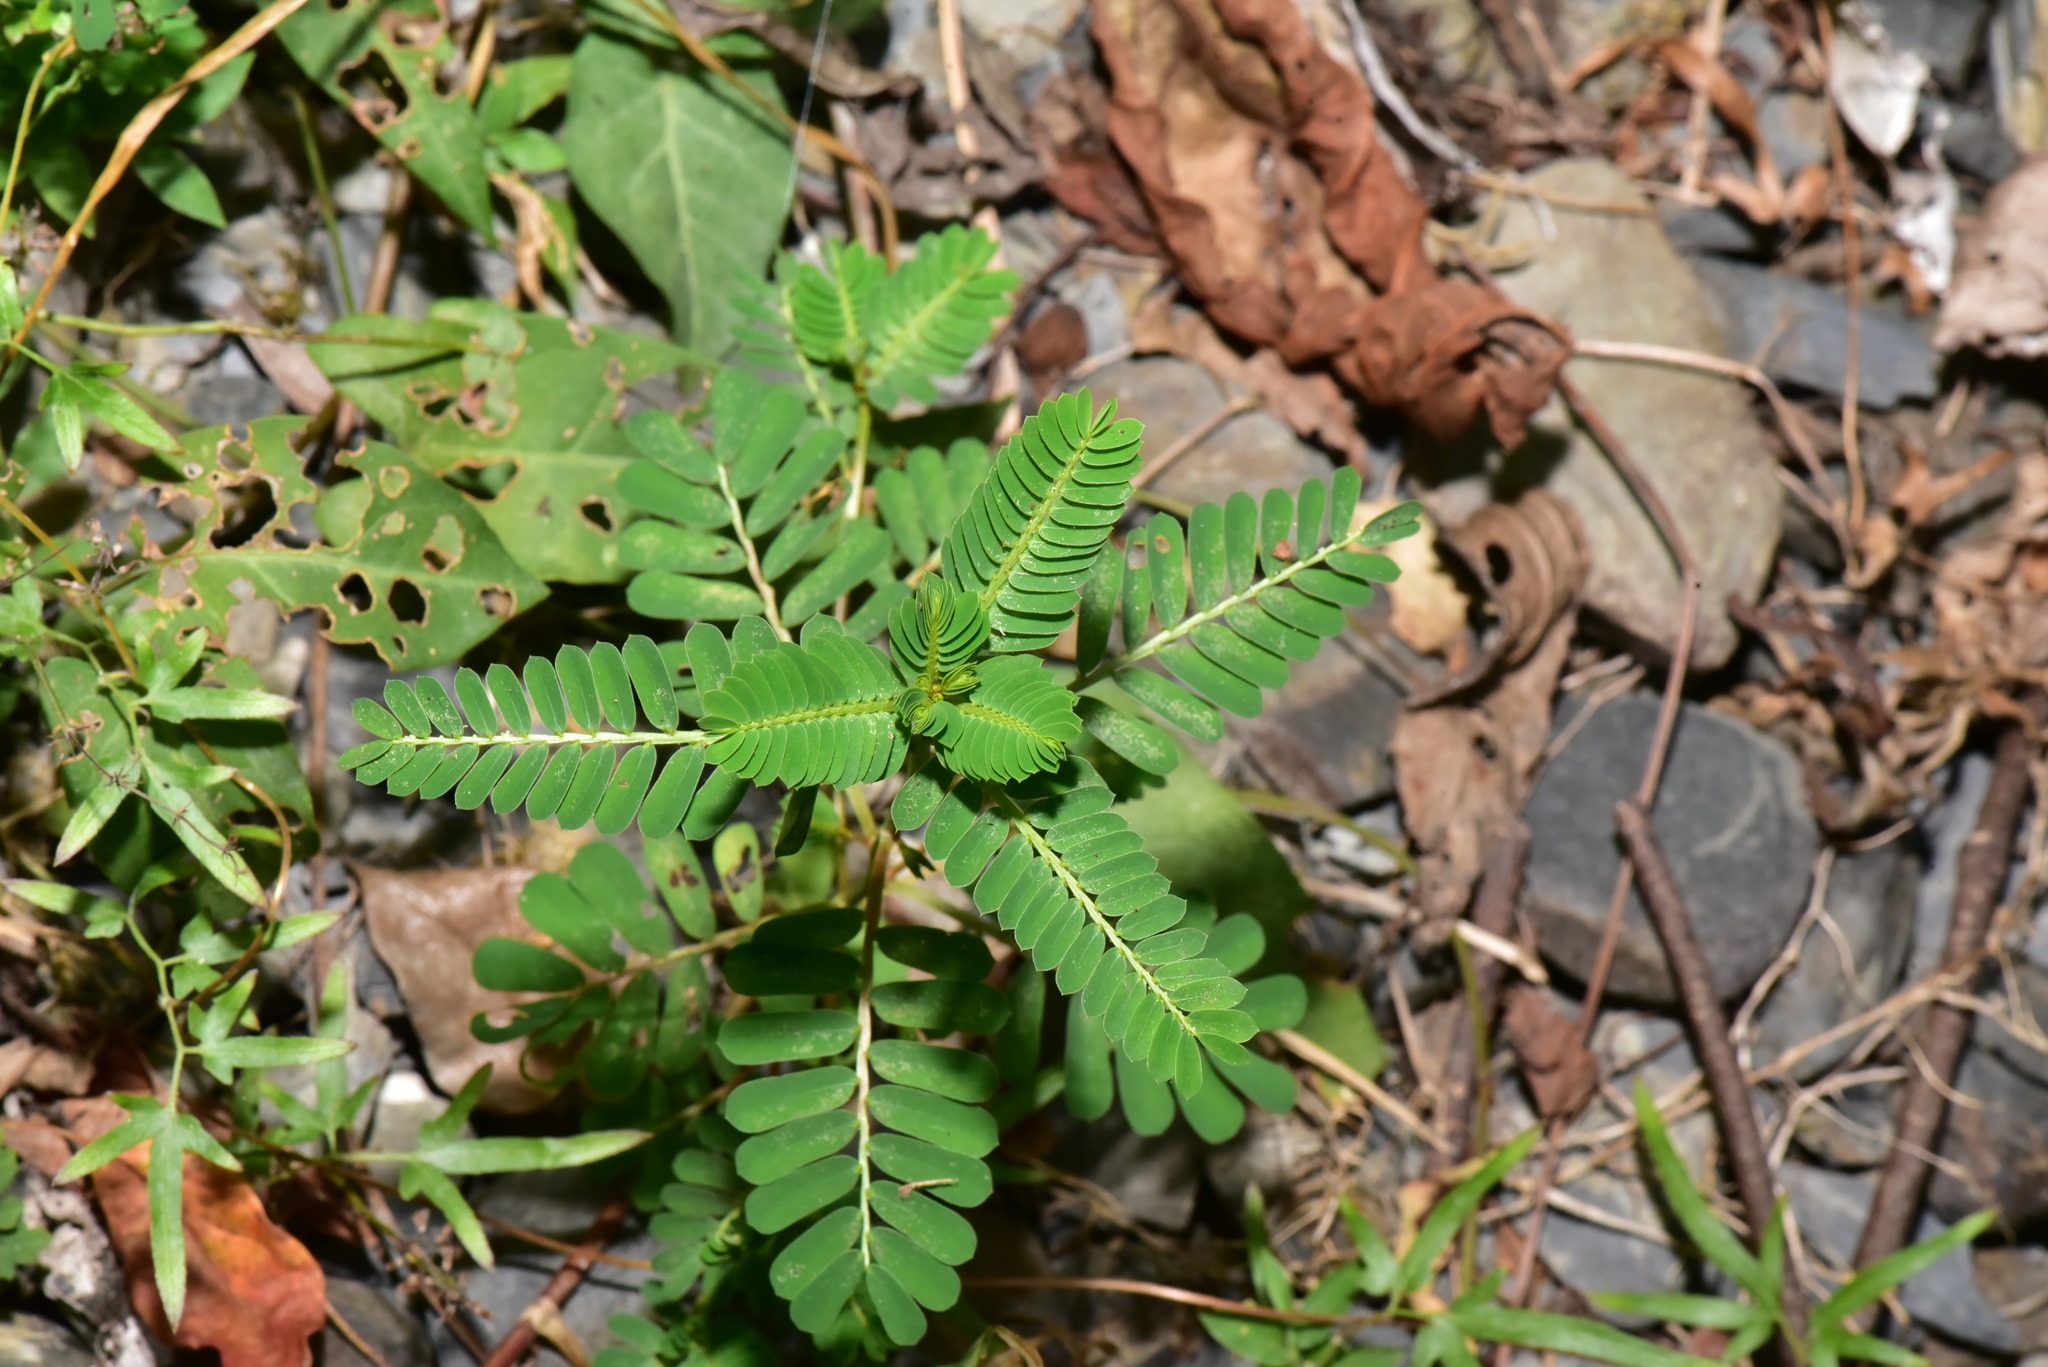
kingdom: Plantae
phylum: Tracheophyta
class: Magnoliopsida
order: Malpighiales
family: Phyllanthaceae
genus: Phyllanthus
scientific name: Phyllanthus urinaria
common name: Chamber bitter
